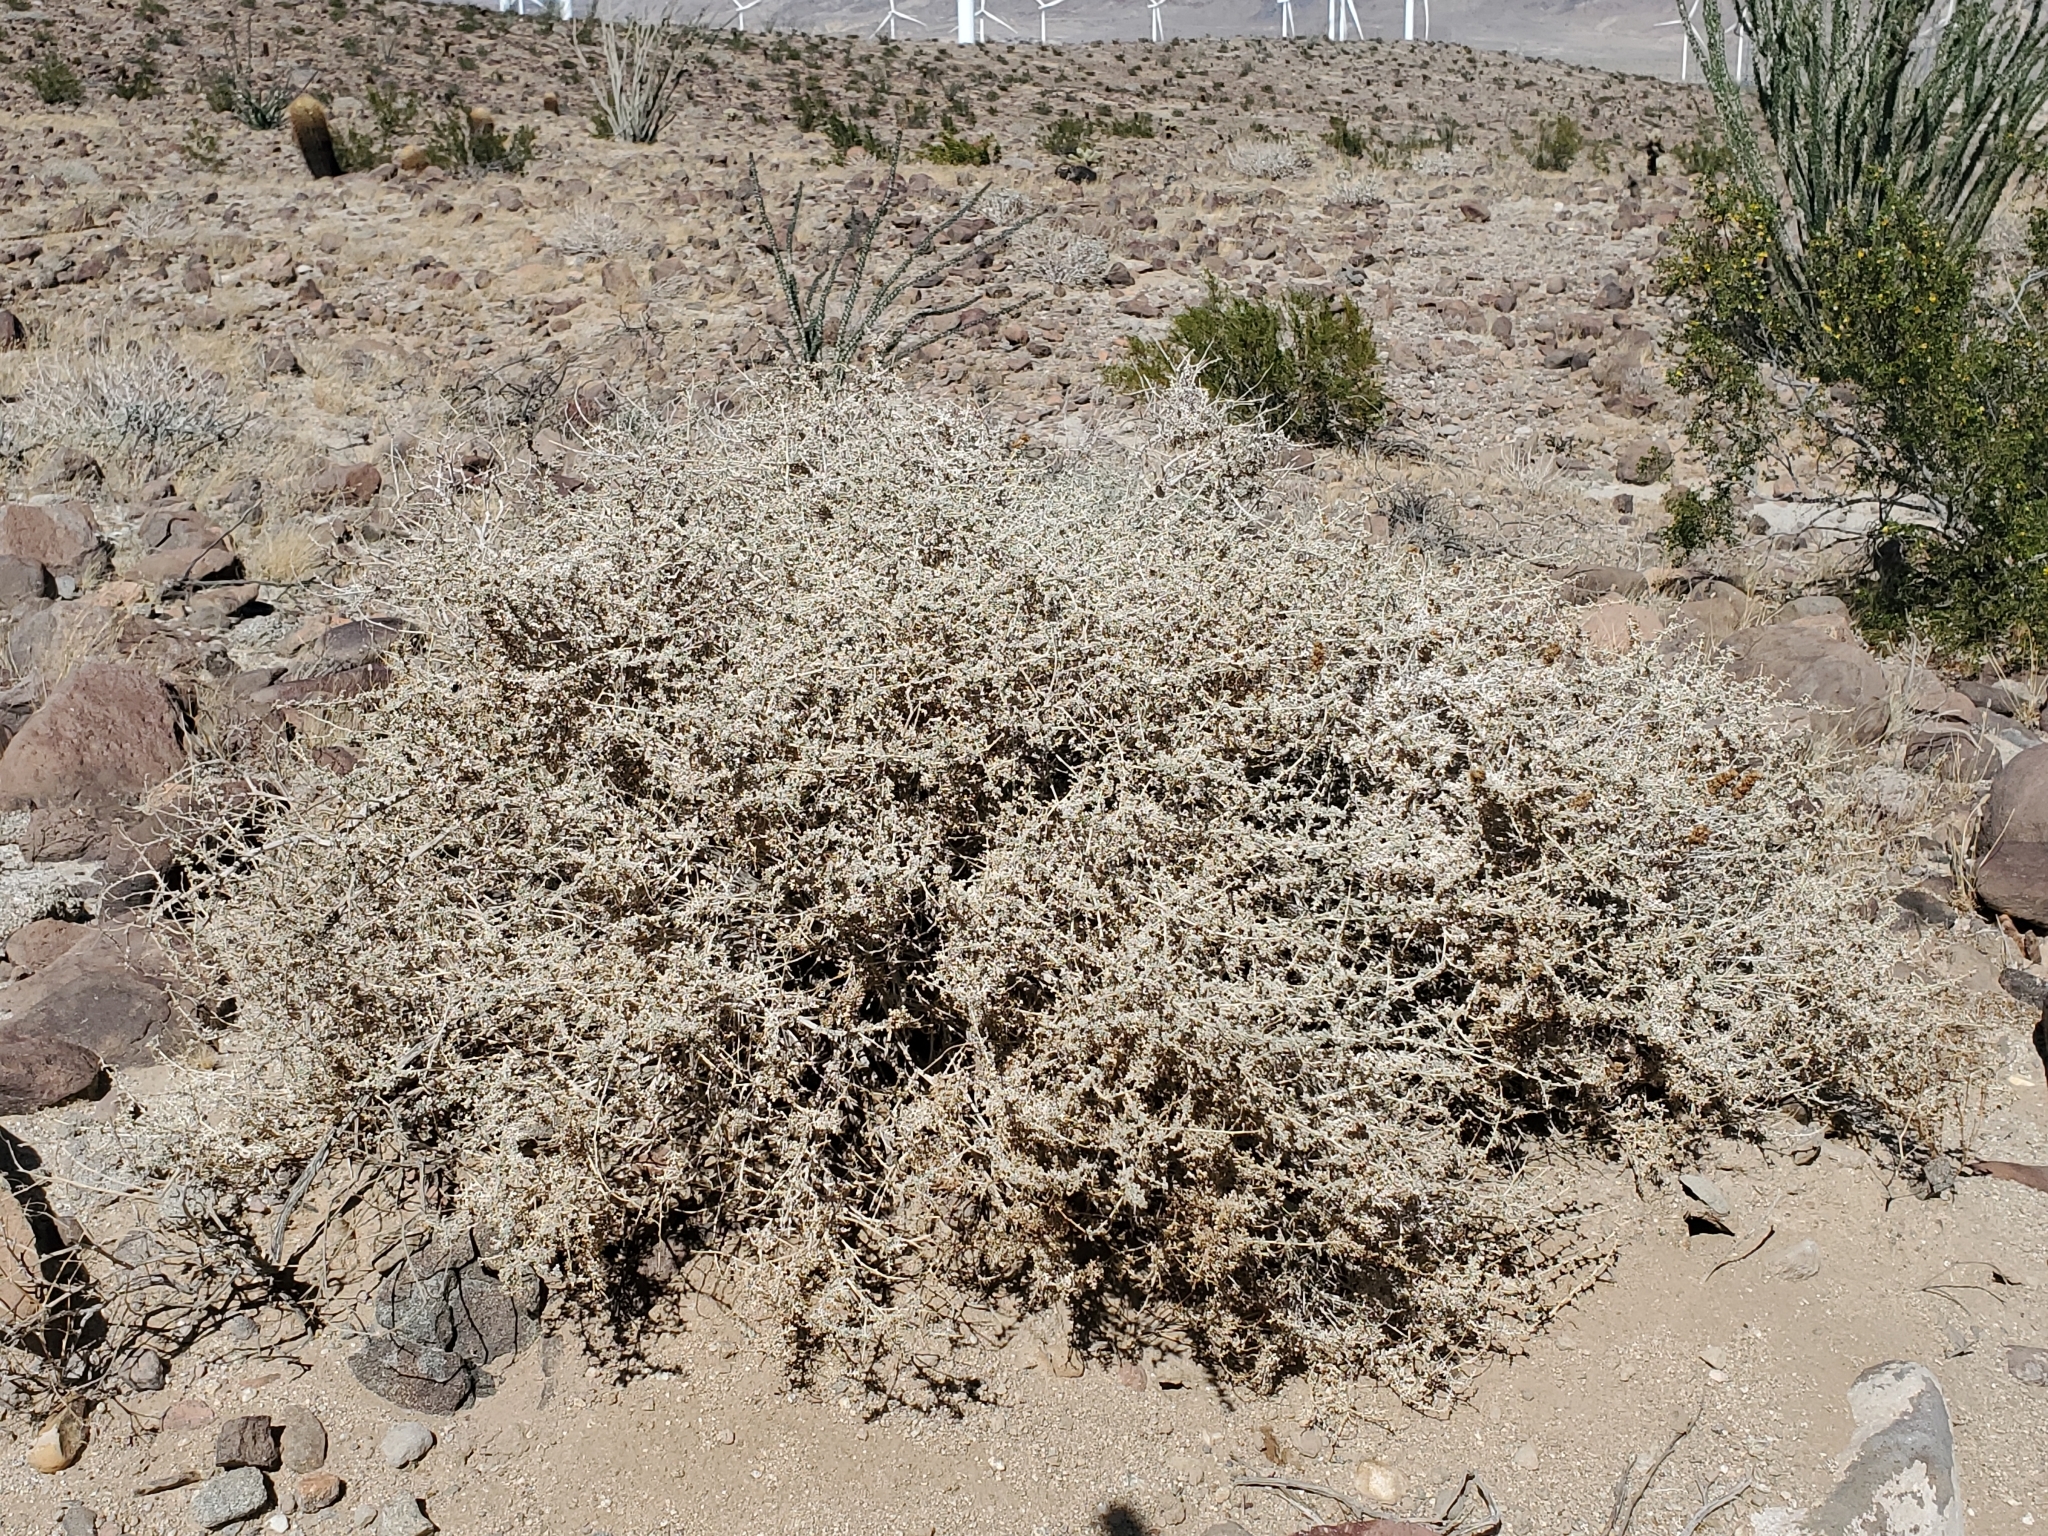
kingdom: Plantae
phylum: Tracheophyta
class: Magnoliopsida
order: Asterales
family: Asteraceae
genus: Ambrosia
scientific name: Ambrosia dumosa
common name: Bur-sage
